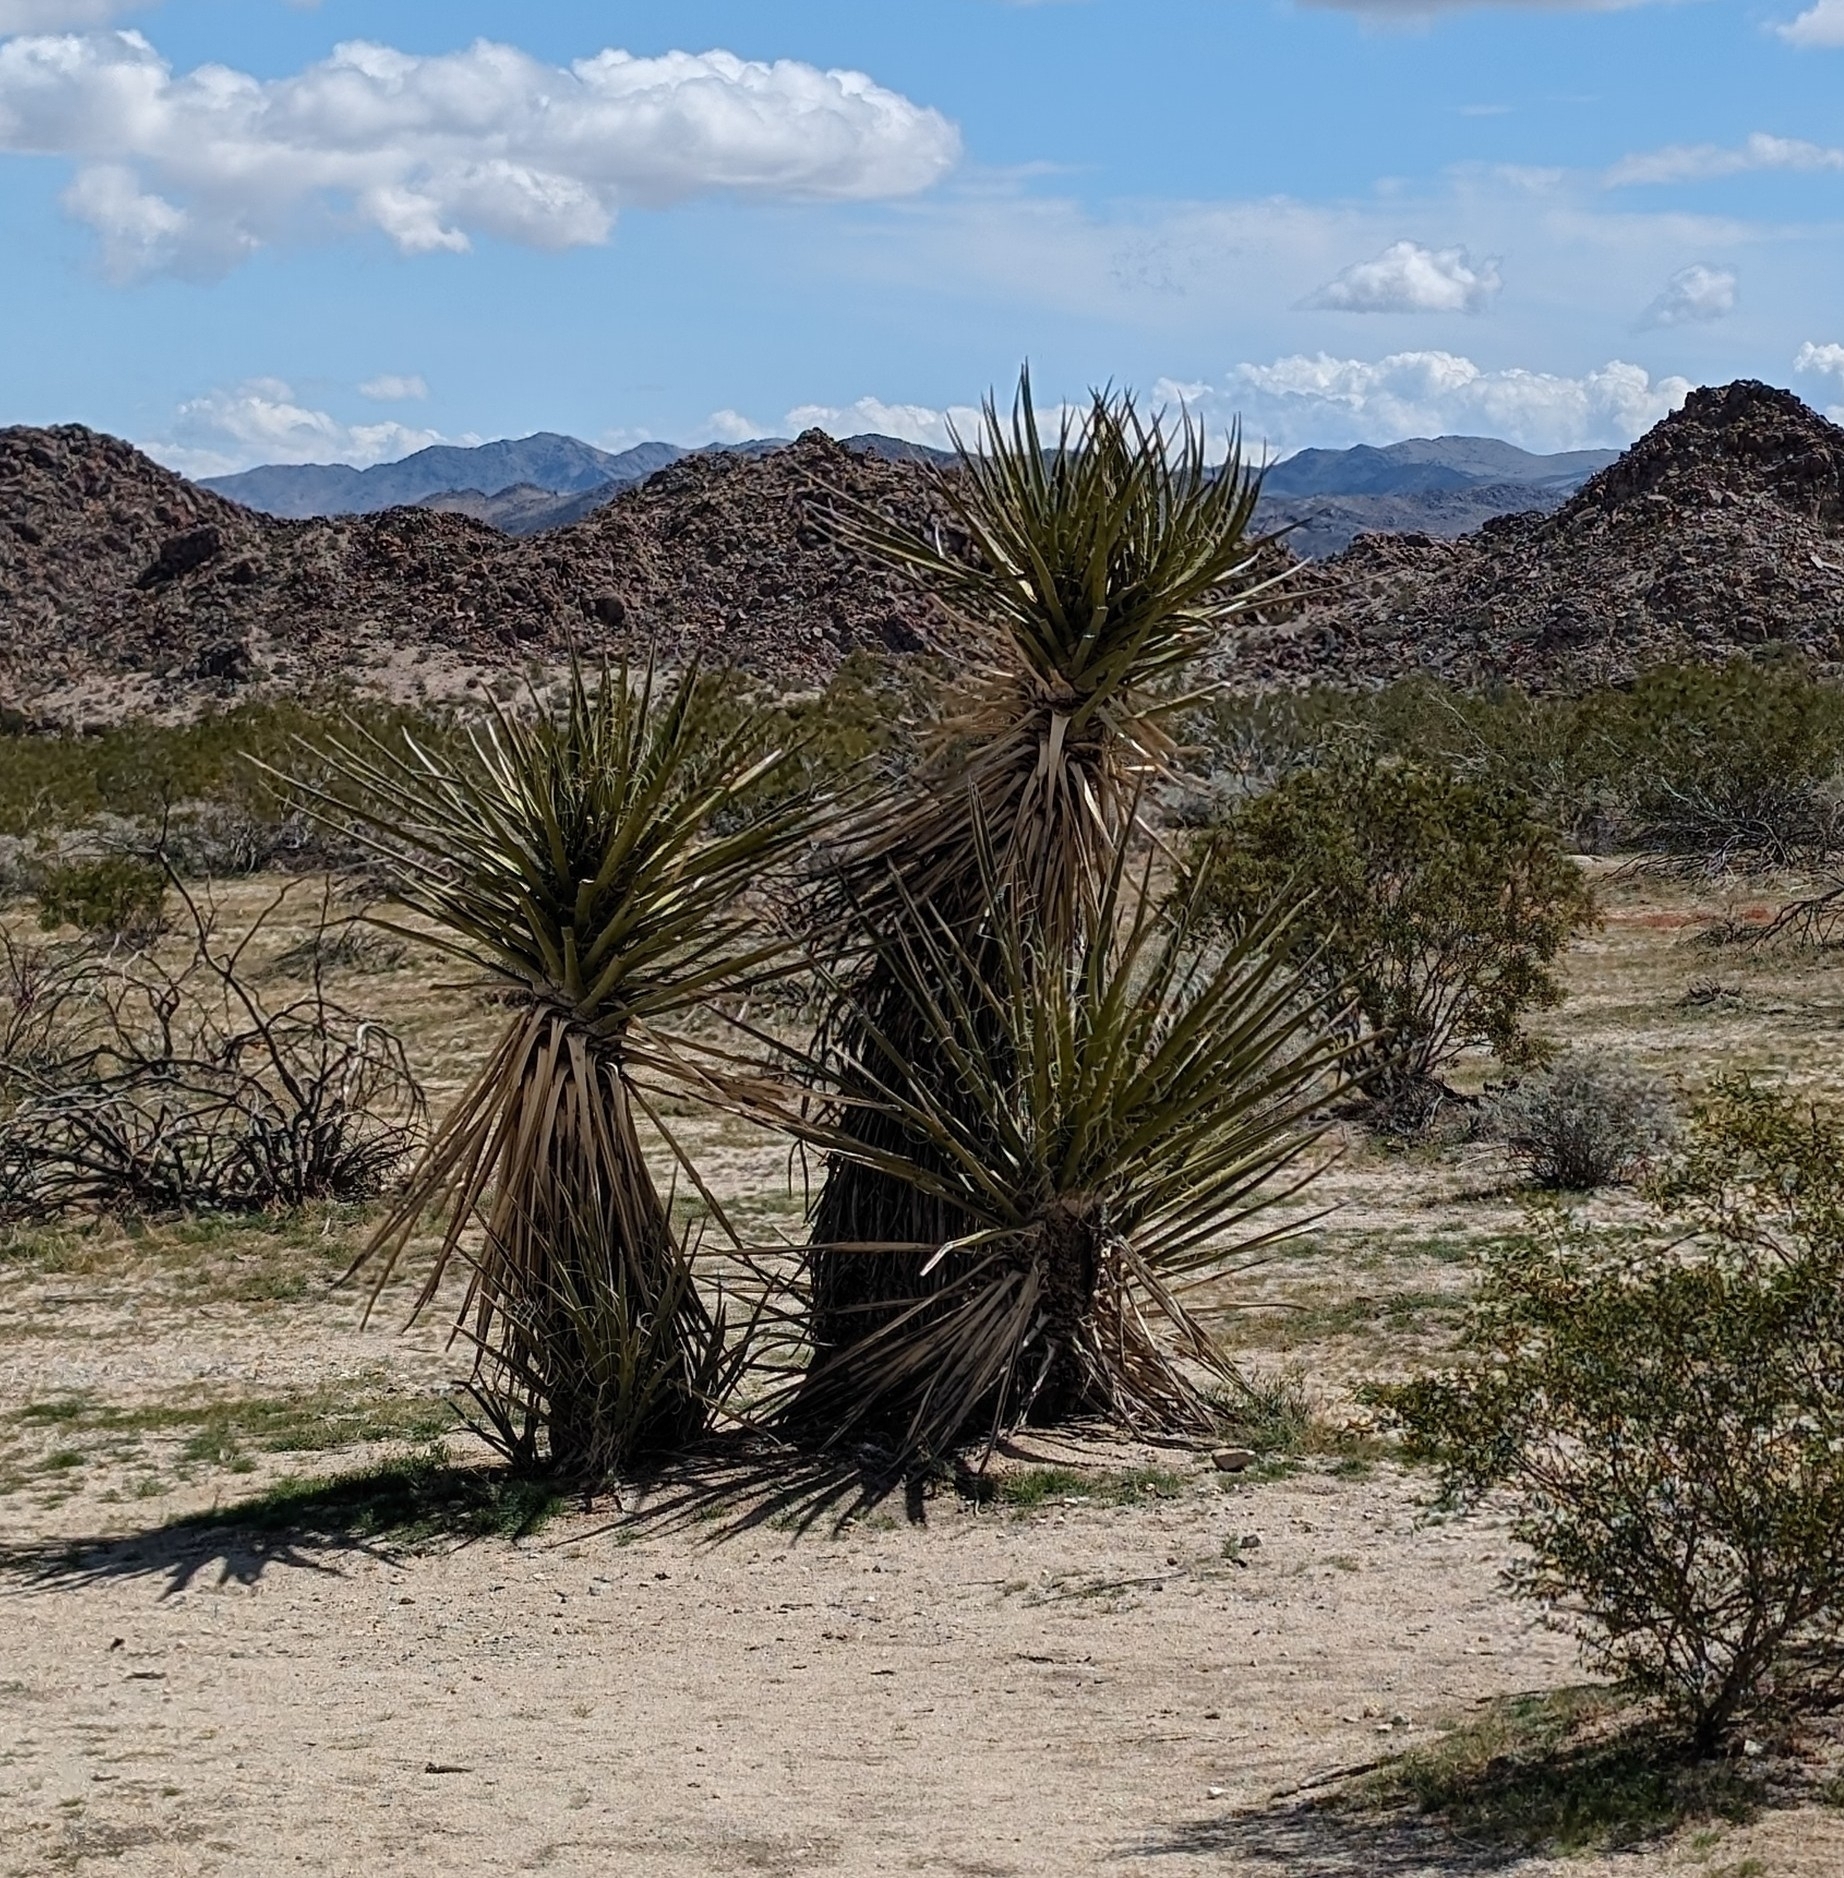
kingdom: Plantae
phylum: Tracheophyta
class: Liliopsida
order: Asparagales
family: Asparagaceae
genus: Yucca
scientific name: Yucca schidigera
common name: Mojave yucca
